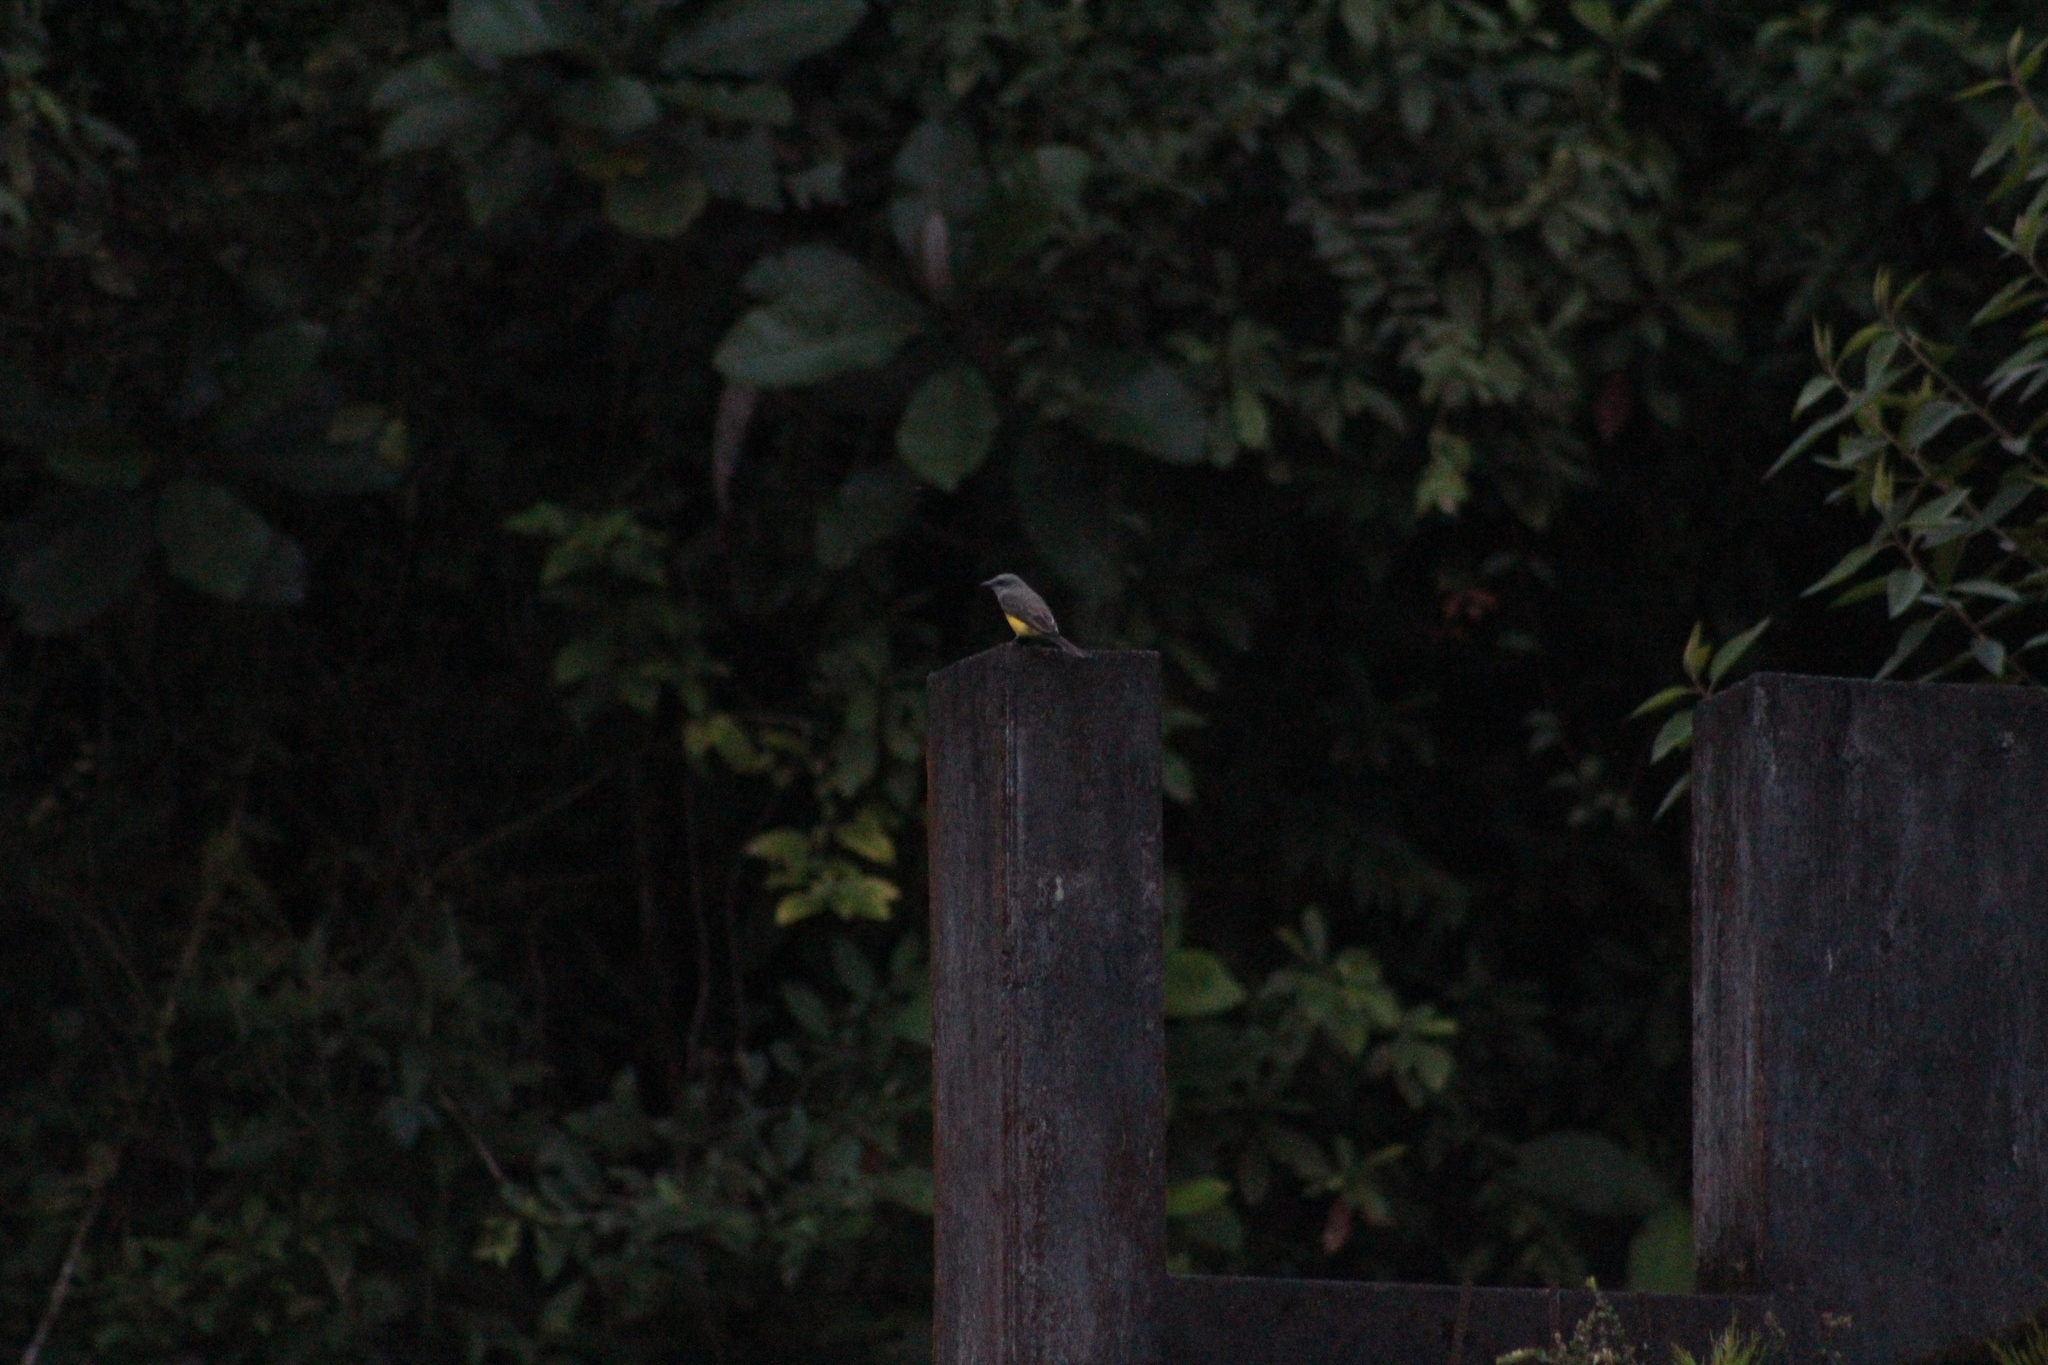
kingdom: Animalia
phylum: Chordata
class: Aves
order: Passeriformes
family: Tyrannidae
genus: Tyrannus
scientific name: Tyrannus melancholicus
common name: Tropical kingbird
